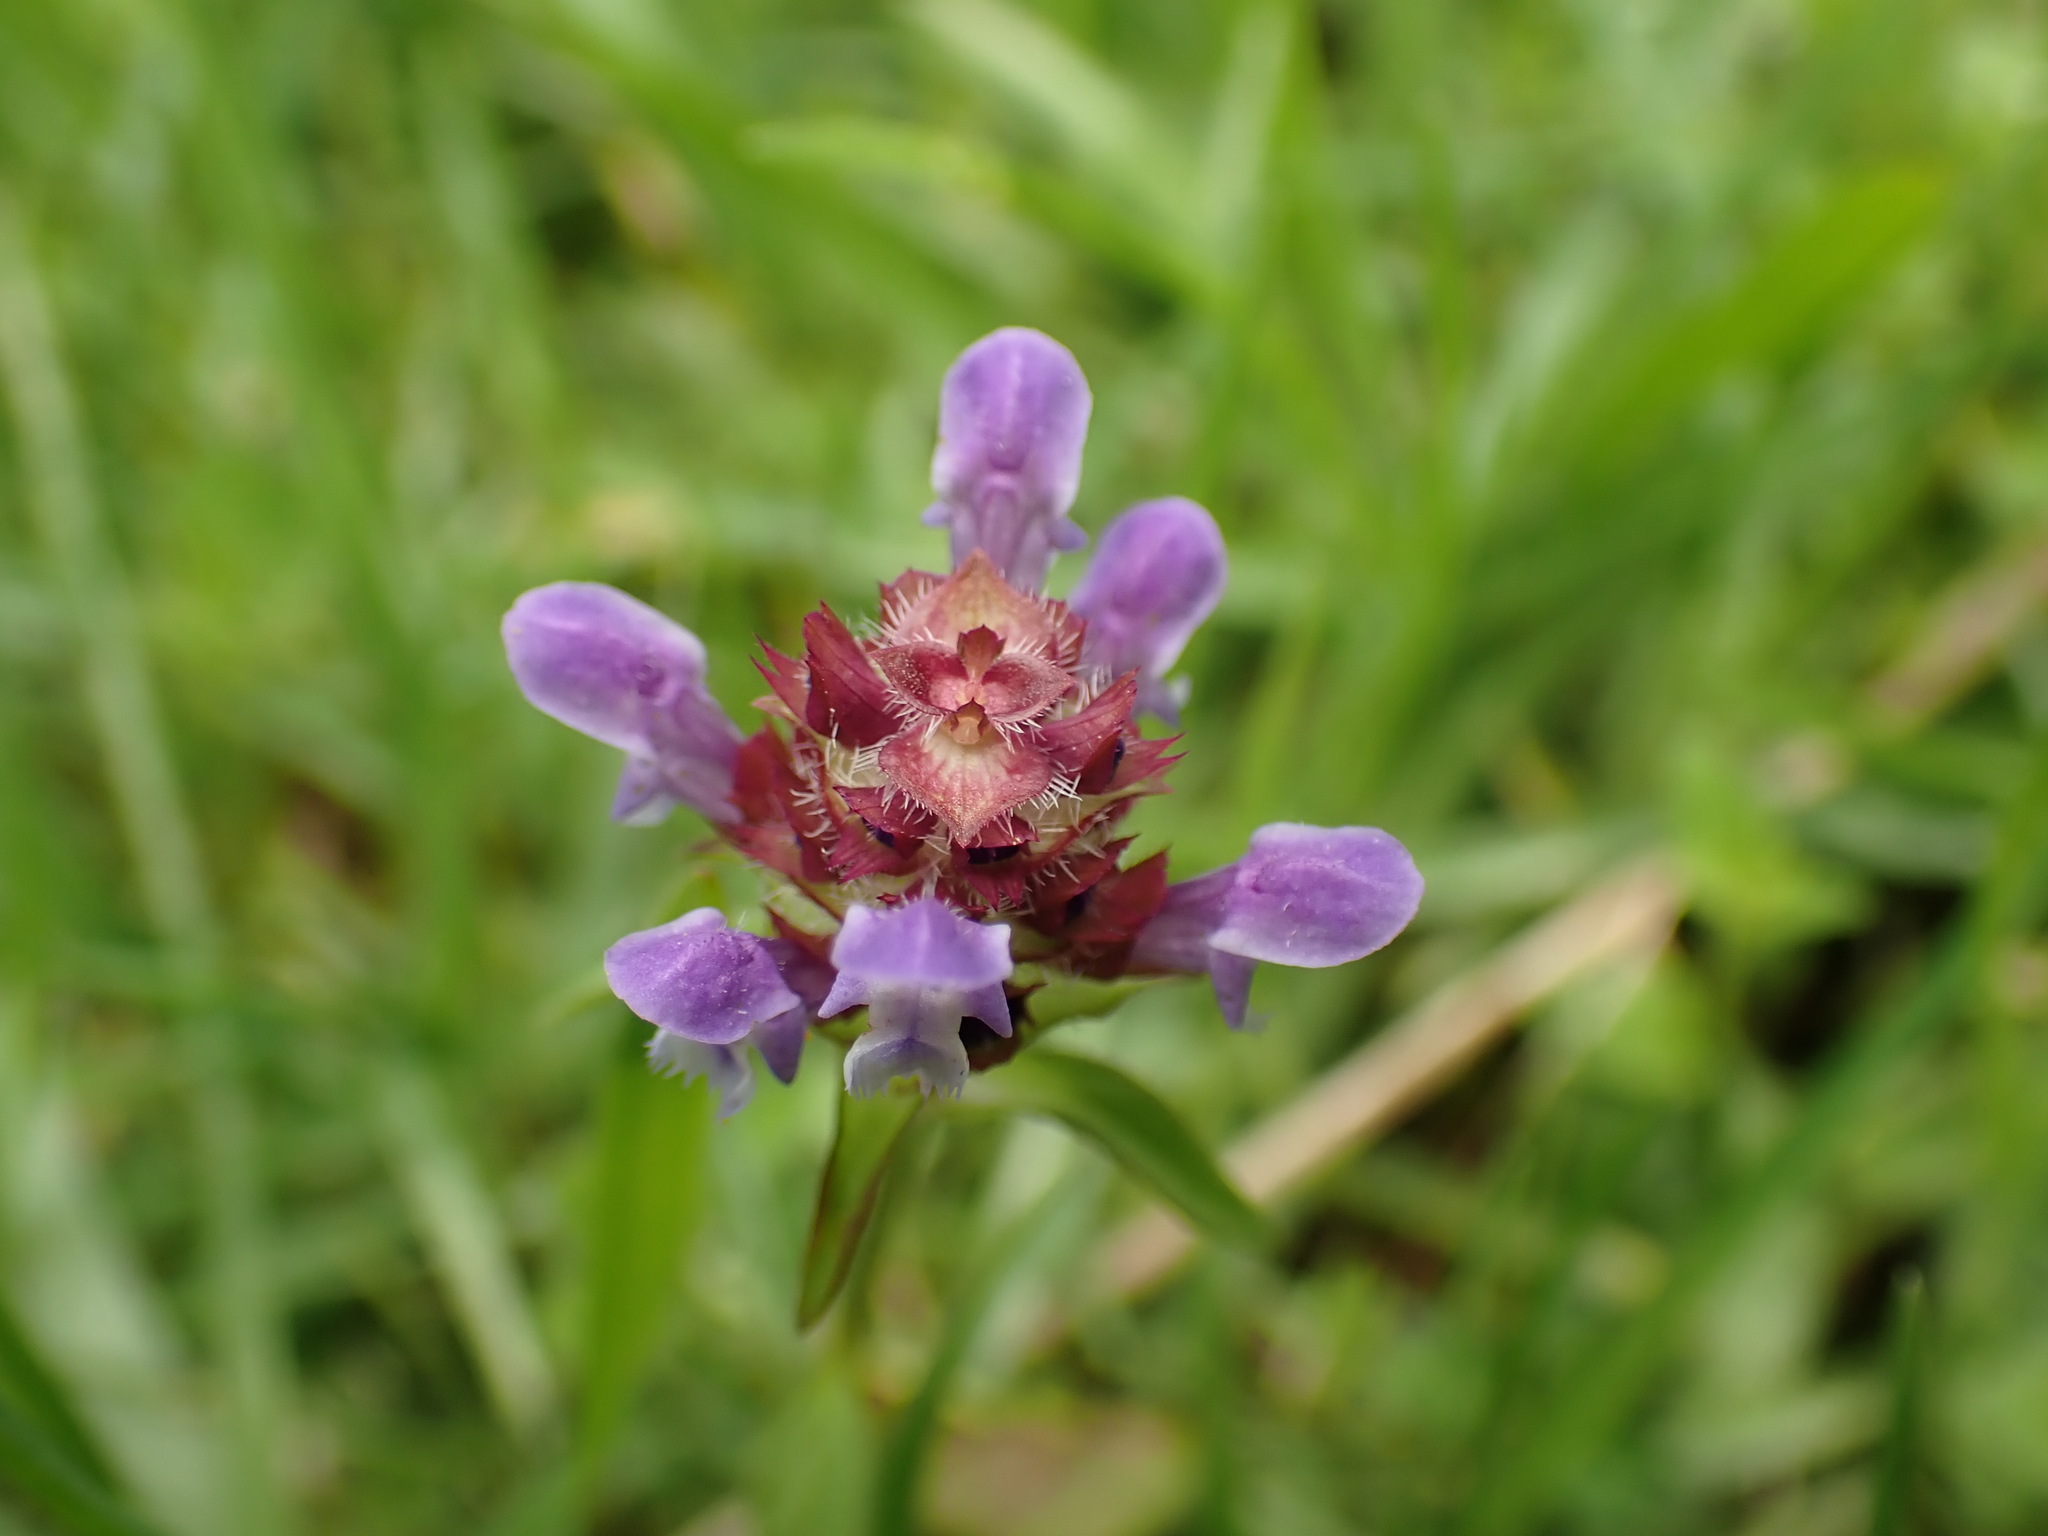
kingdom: Plantae
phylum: Tracheophyta
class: Magnoliopsida
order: Lamiales
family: Lamiaceae
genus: Prunella
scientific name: Prunella vulgaris
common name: Heal-all
